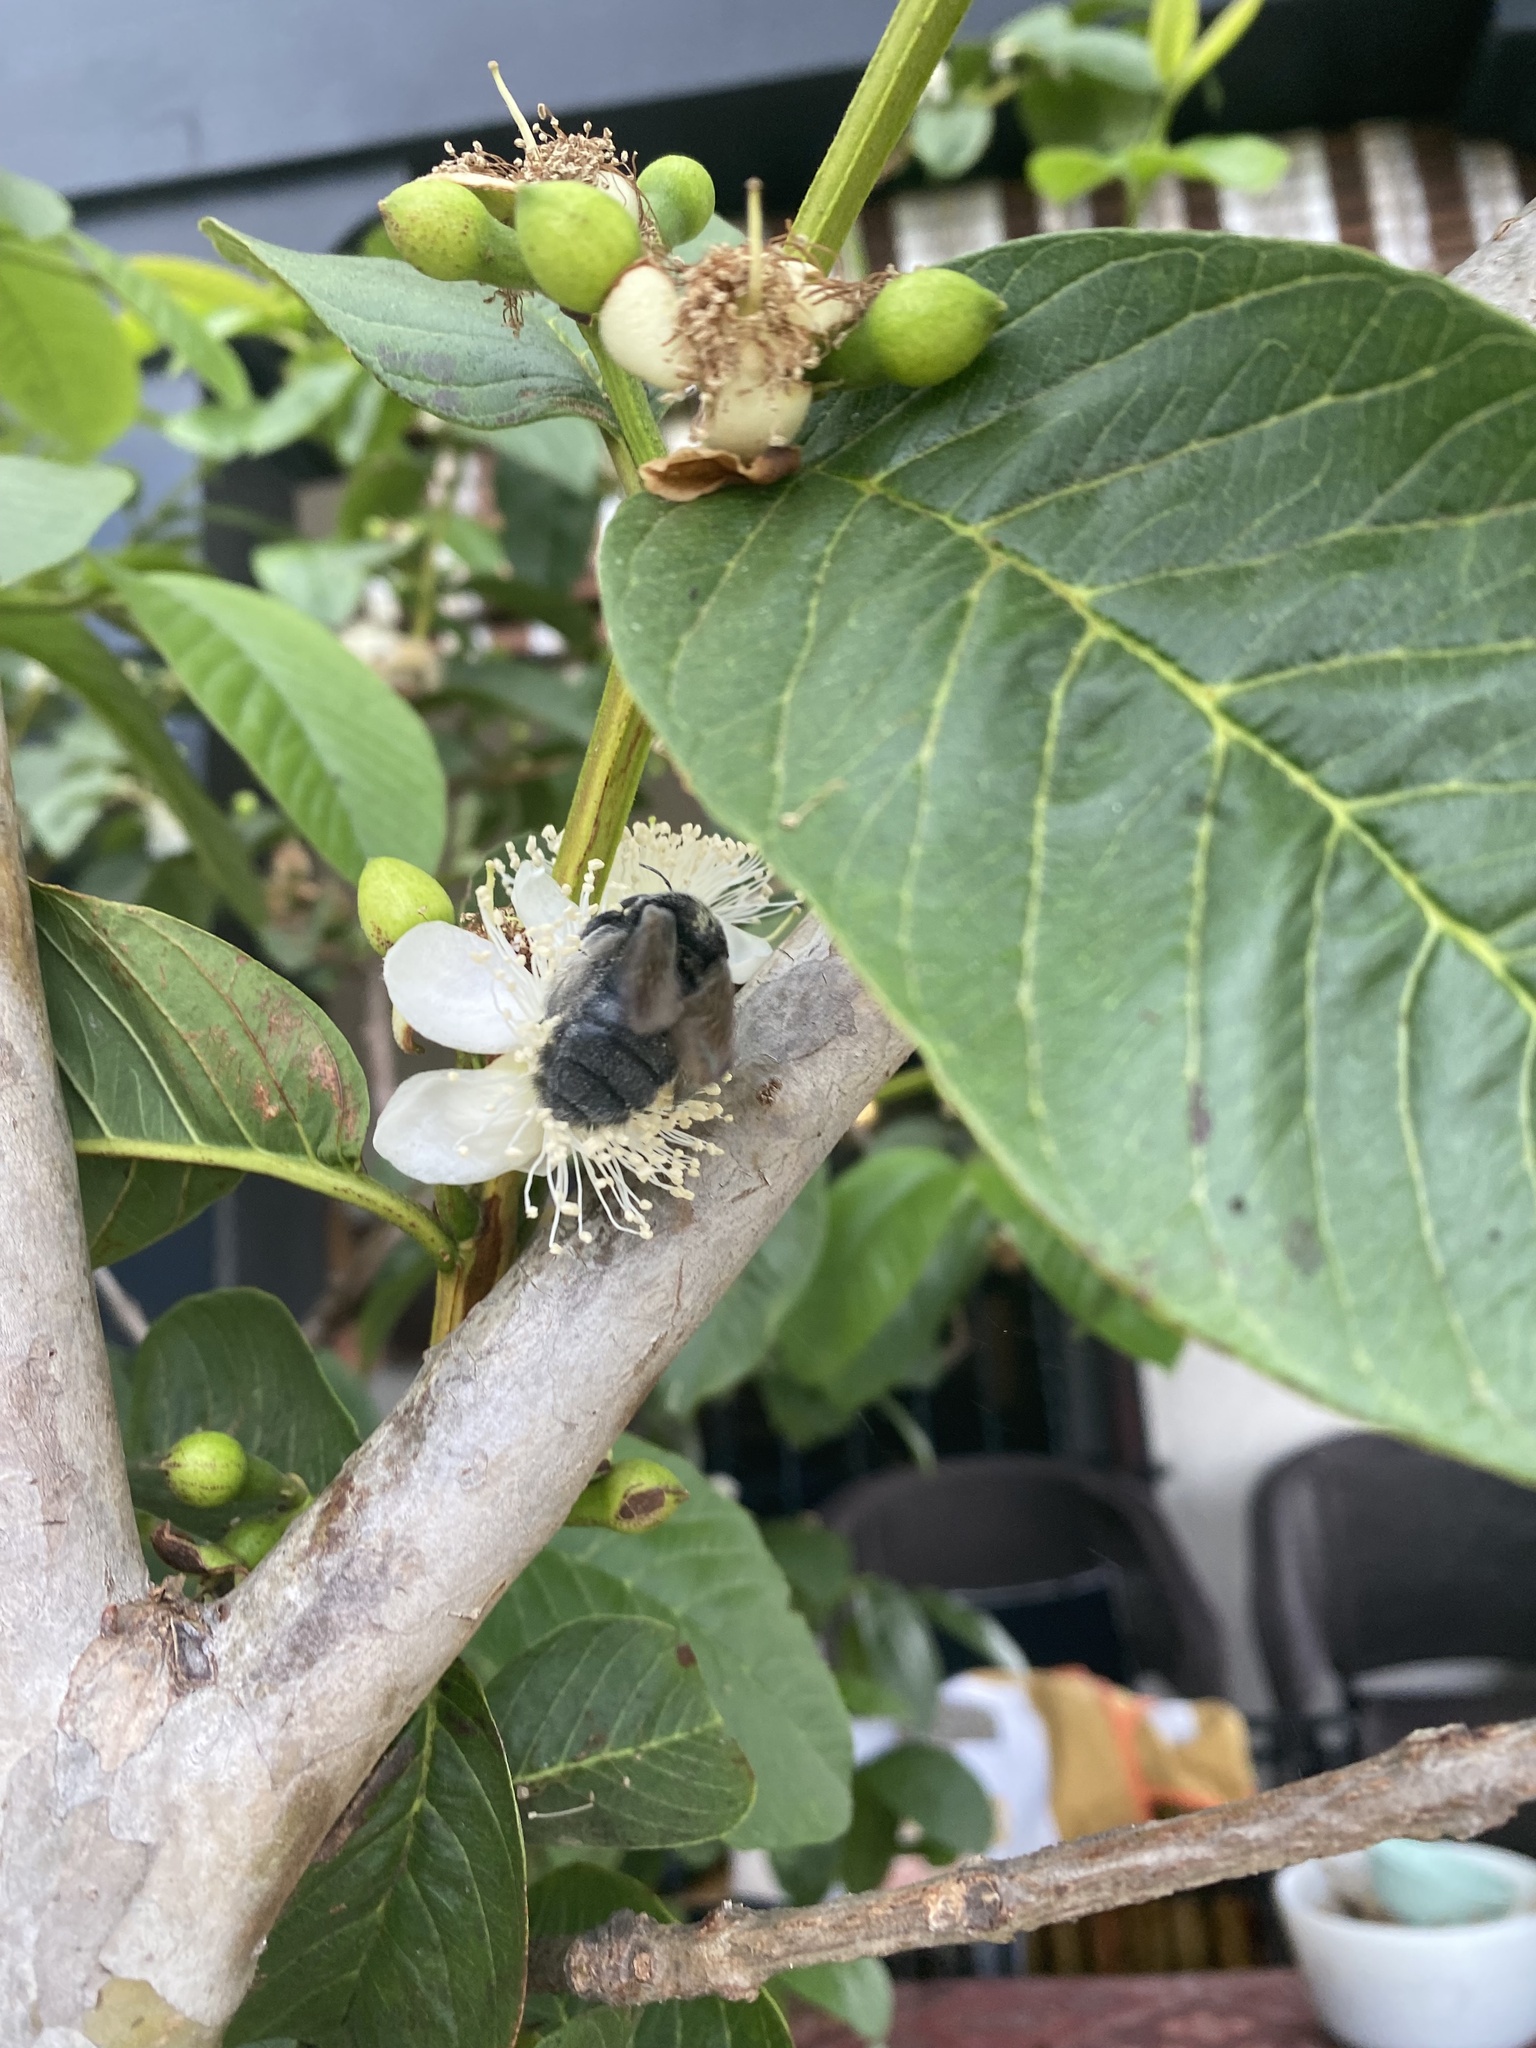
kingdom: Animalia
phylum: Arthropoda
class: Insecta
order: Hymenoptera
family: Apidae
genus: Xylocopa
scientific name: Xylocopa sonorina
